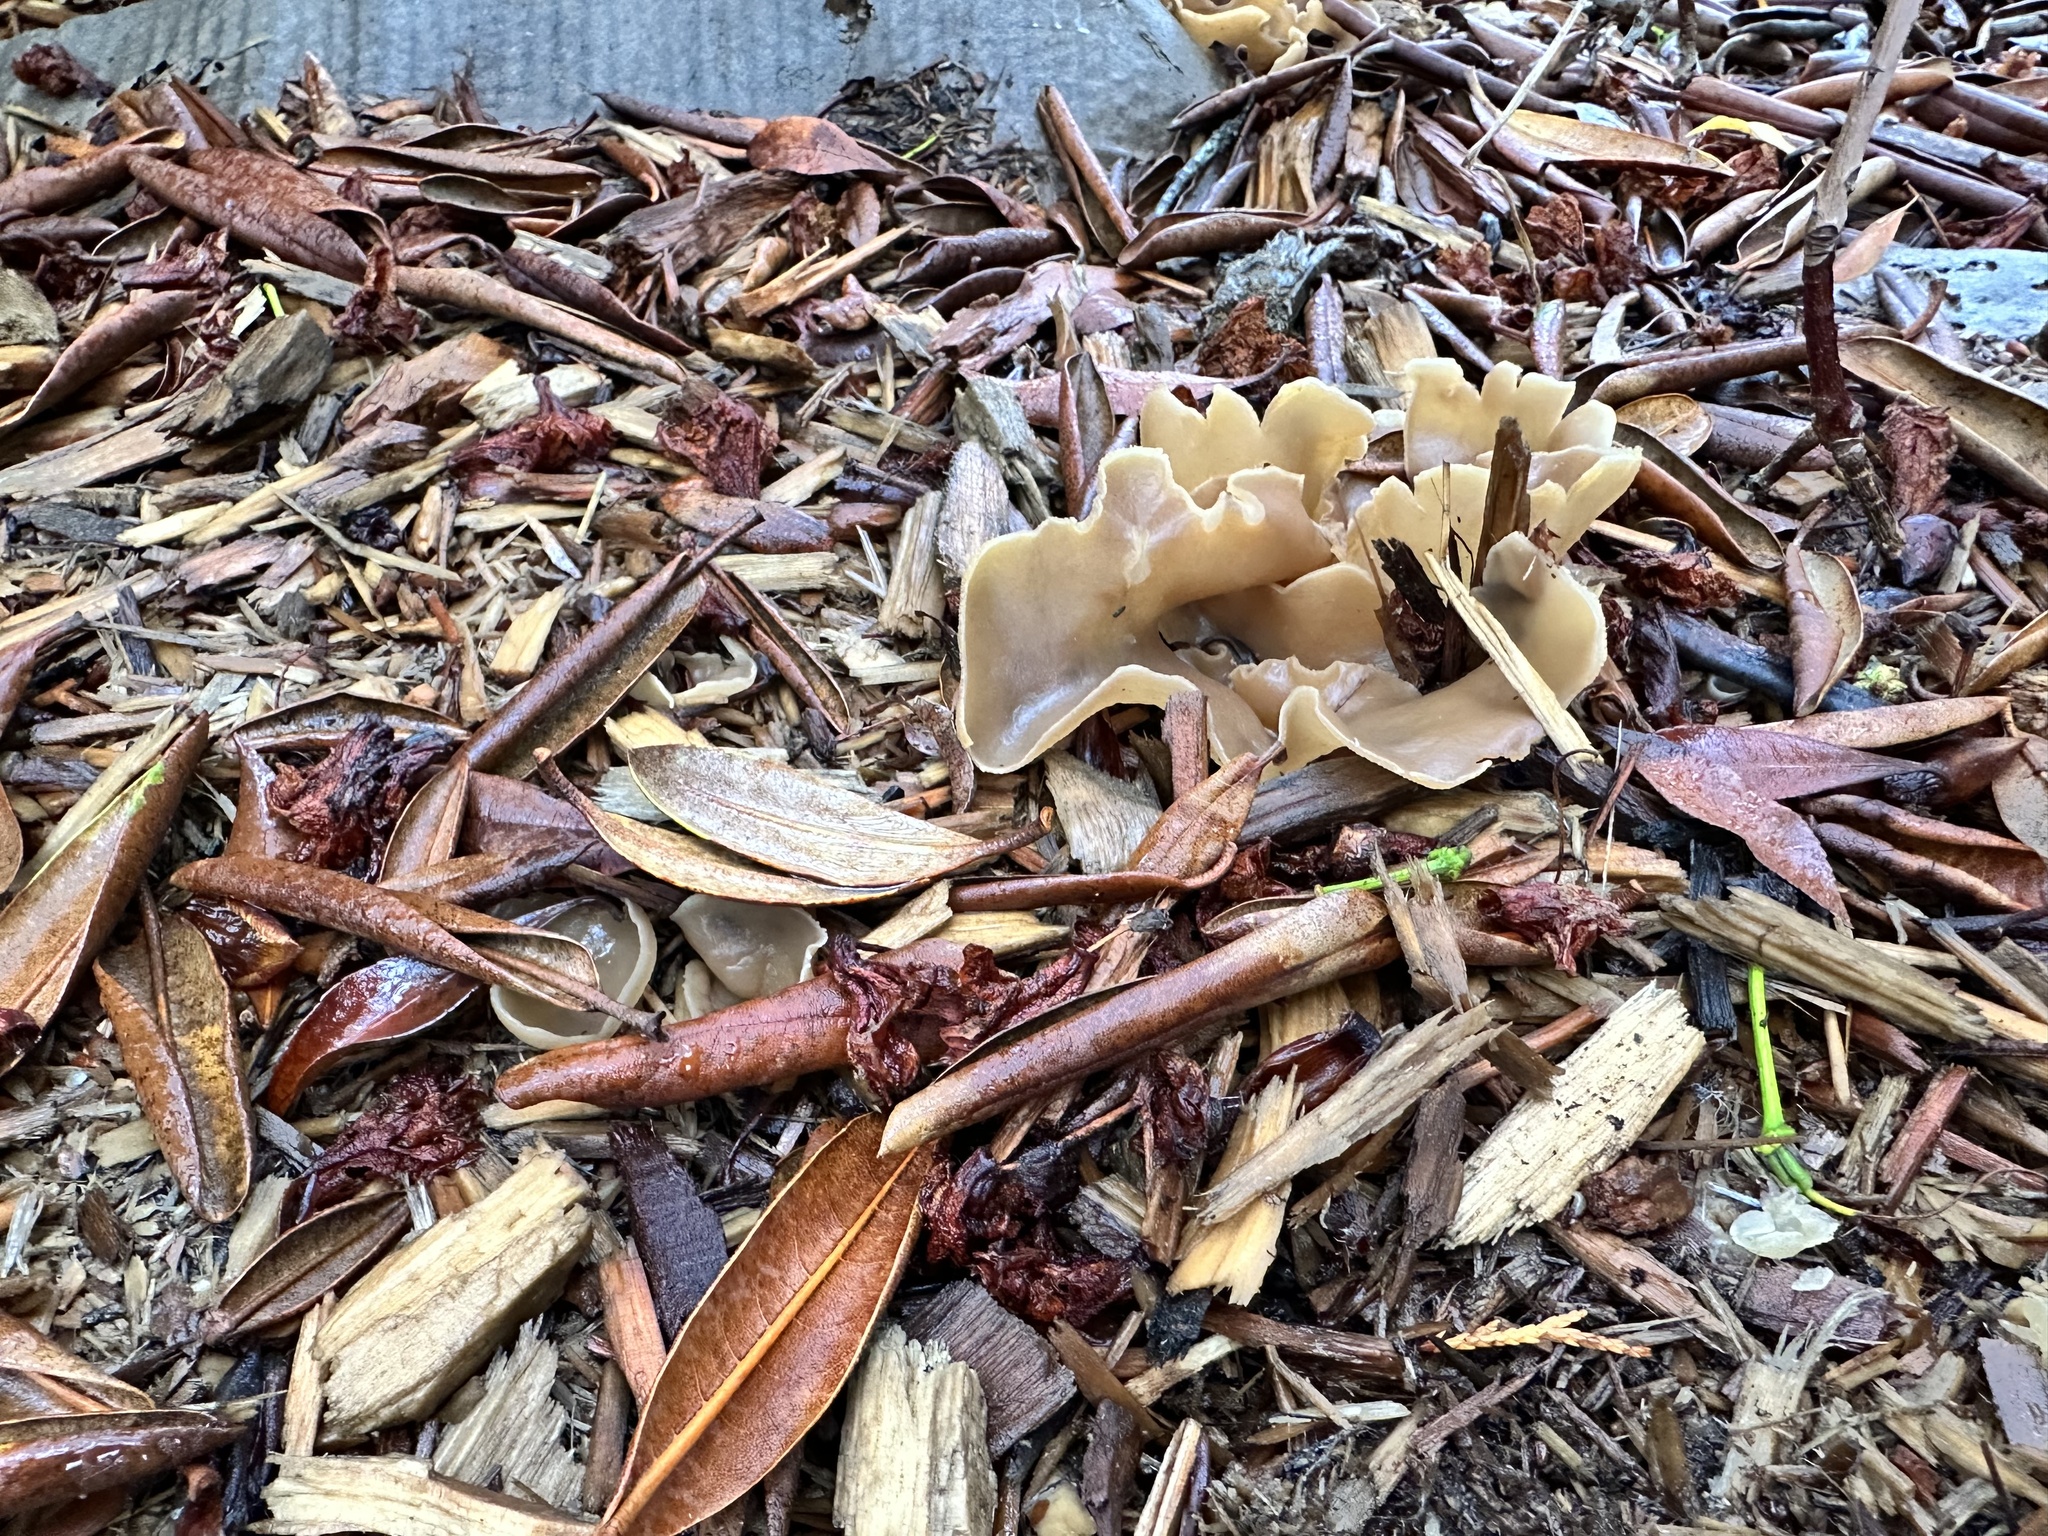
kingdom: Fungi
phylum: Ascomycota
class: Pezizomycetes
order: Pezizales
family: Pezizaceae
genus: Peziza
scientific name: Peziza varia
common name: Layered cup
